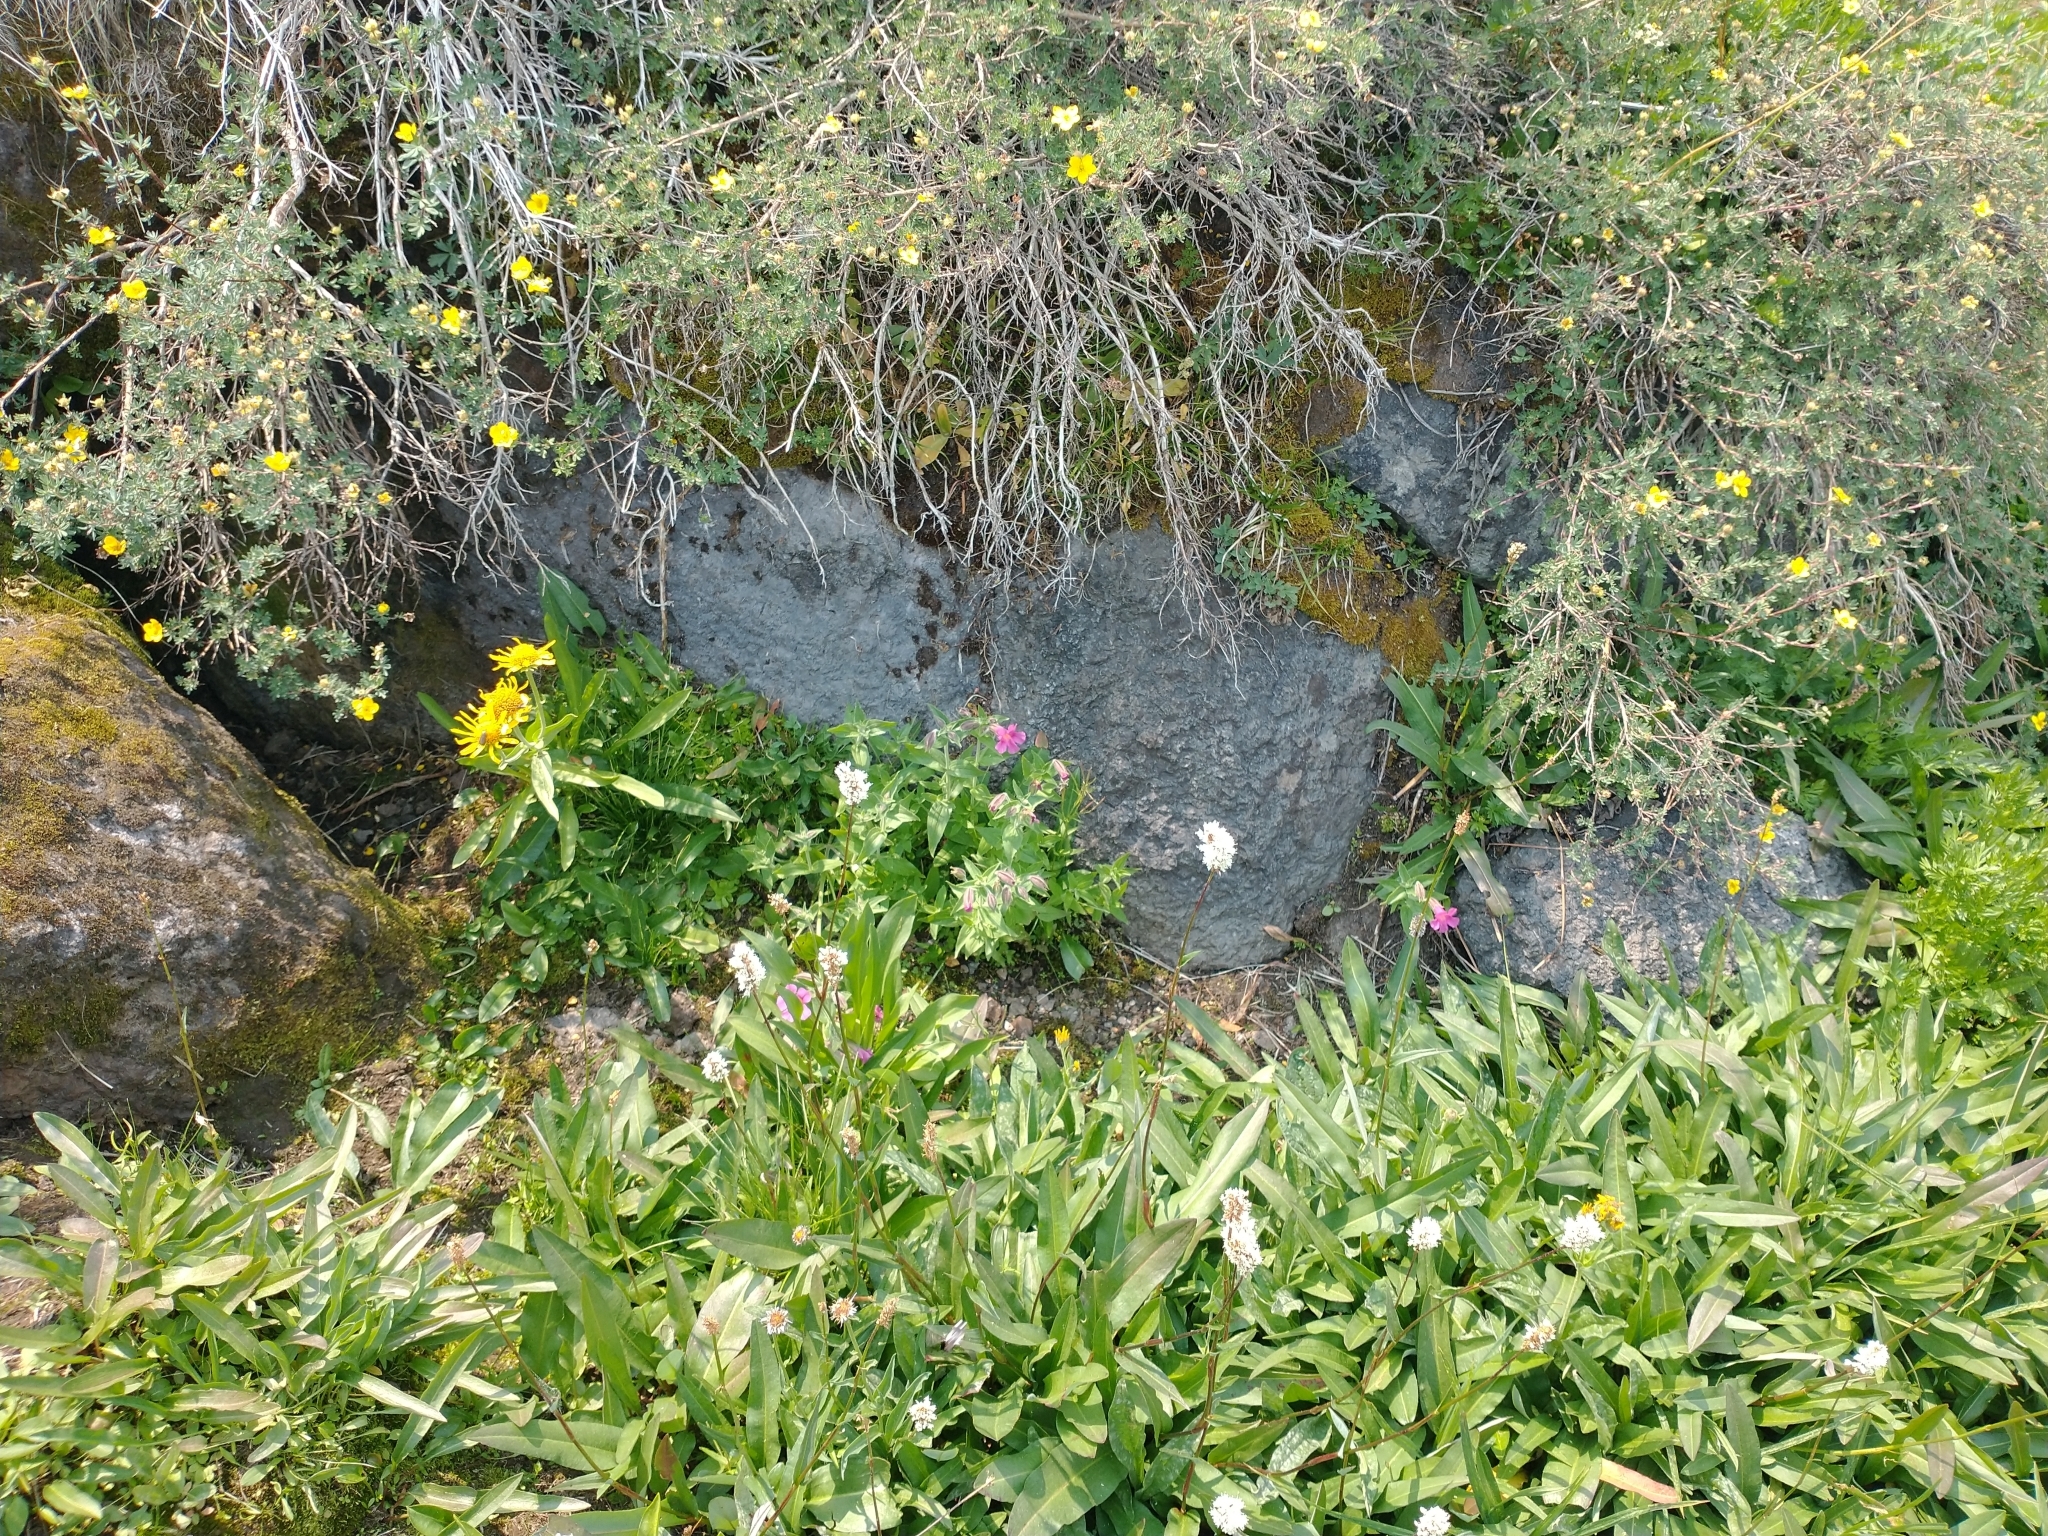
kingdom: Plantae
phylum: Tracheophyta
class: Magnoliopsida
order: Rosales
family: Rosaceae
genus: Dasiphora
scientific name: Dasiphora fruticosa
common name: Shrubby cinquefoil
